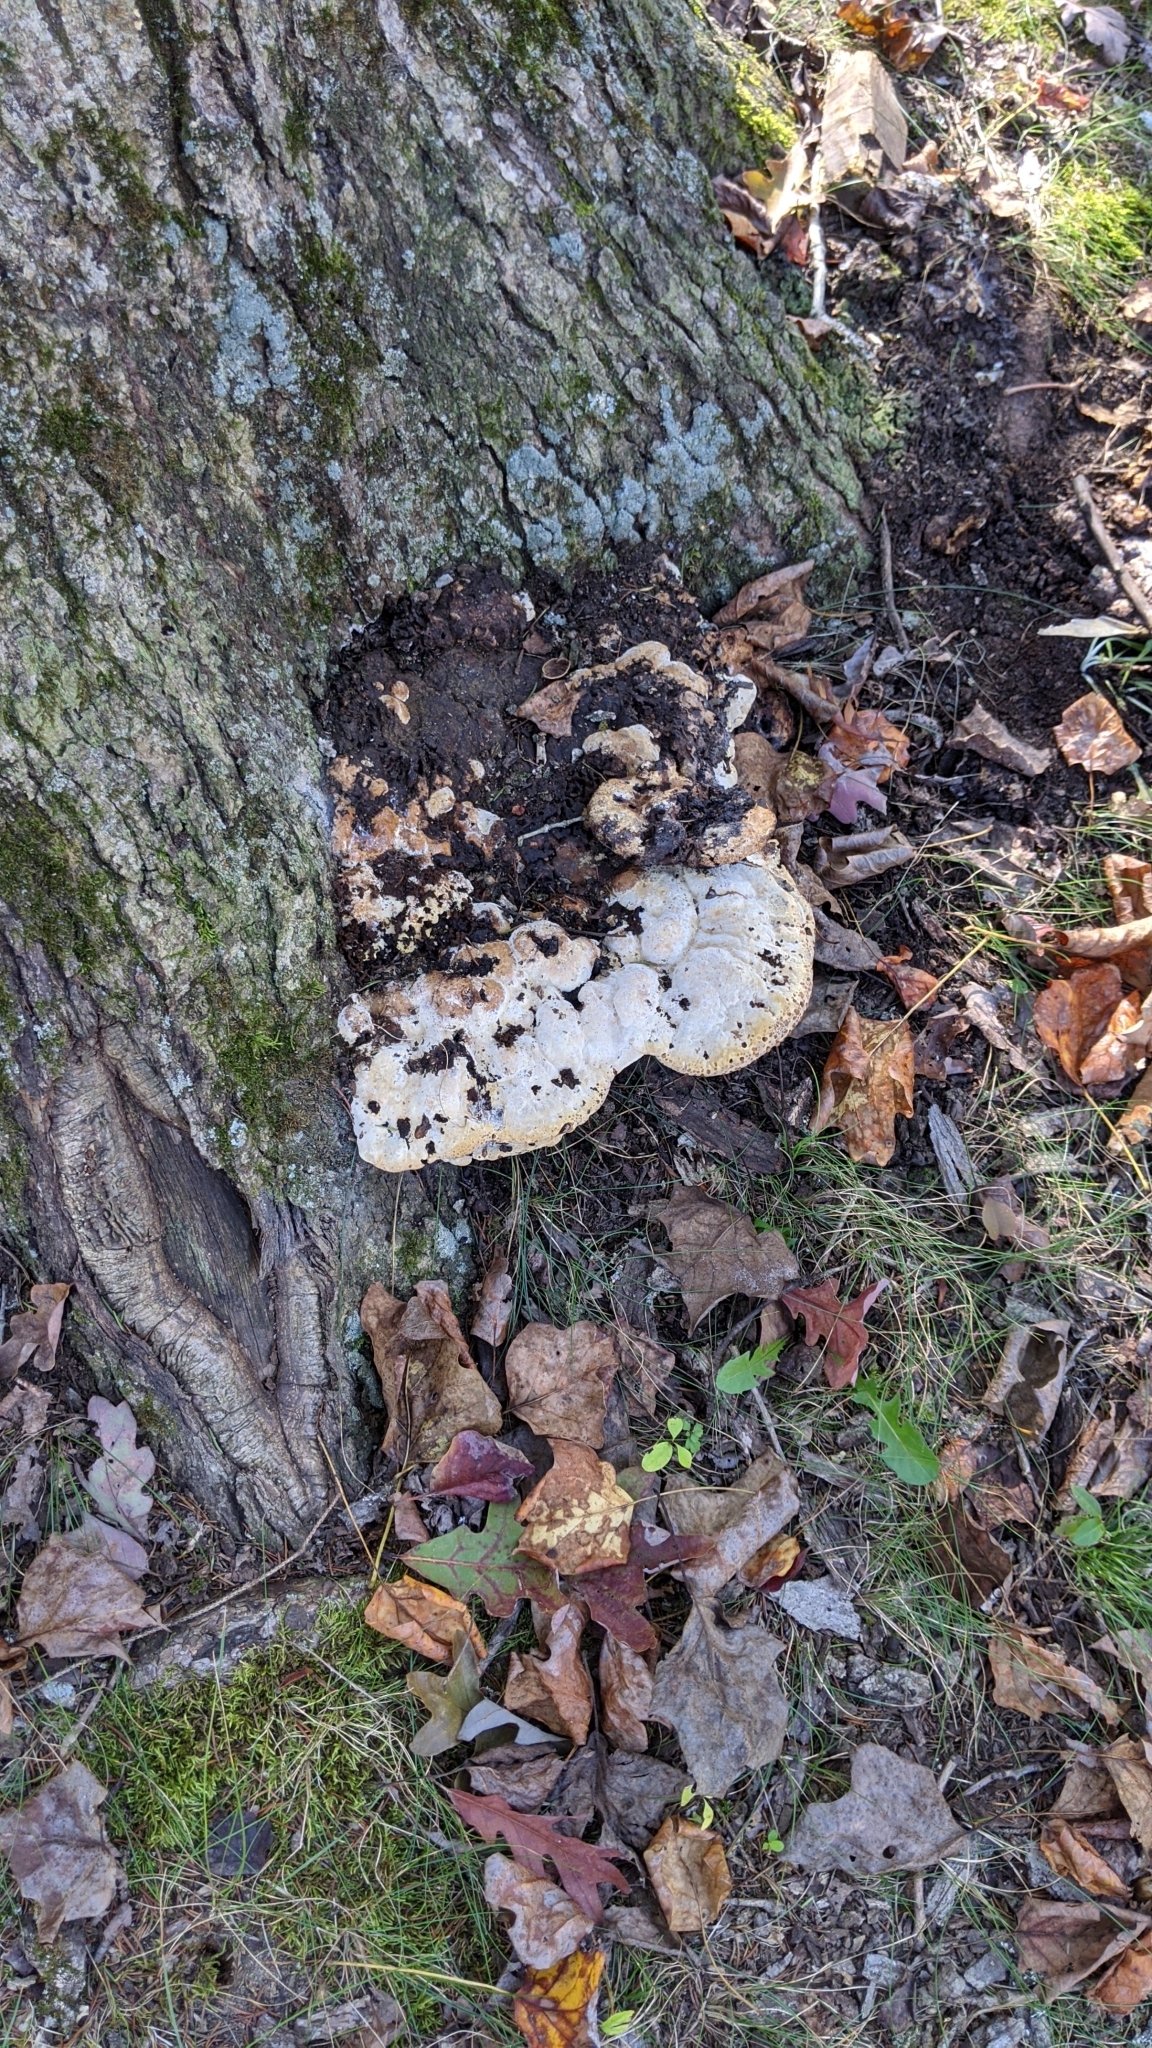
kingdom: Fungi
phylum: Basidiomycota
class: Agaricomycetes
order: Hymenochaetales
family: Hymenochaetaceae
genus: Pseudoinonotus
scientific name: Pseudoinonotus dryadeus
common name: Oak bracket
